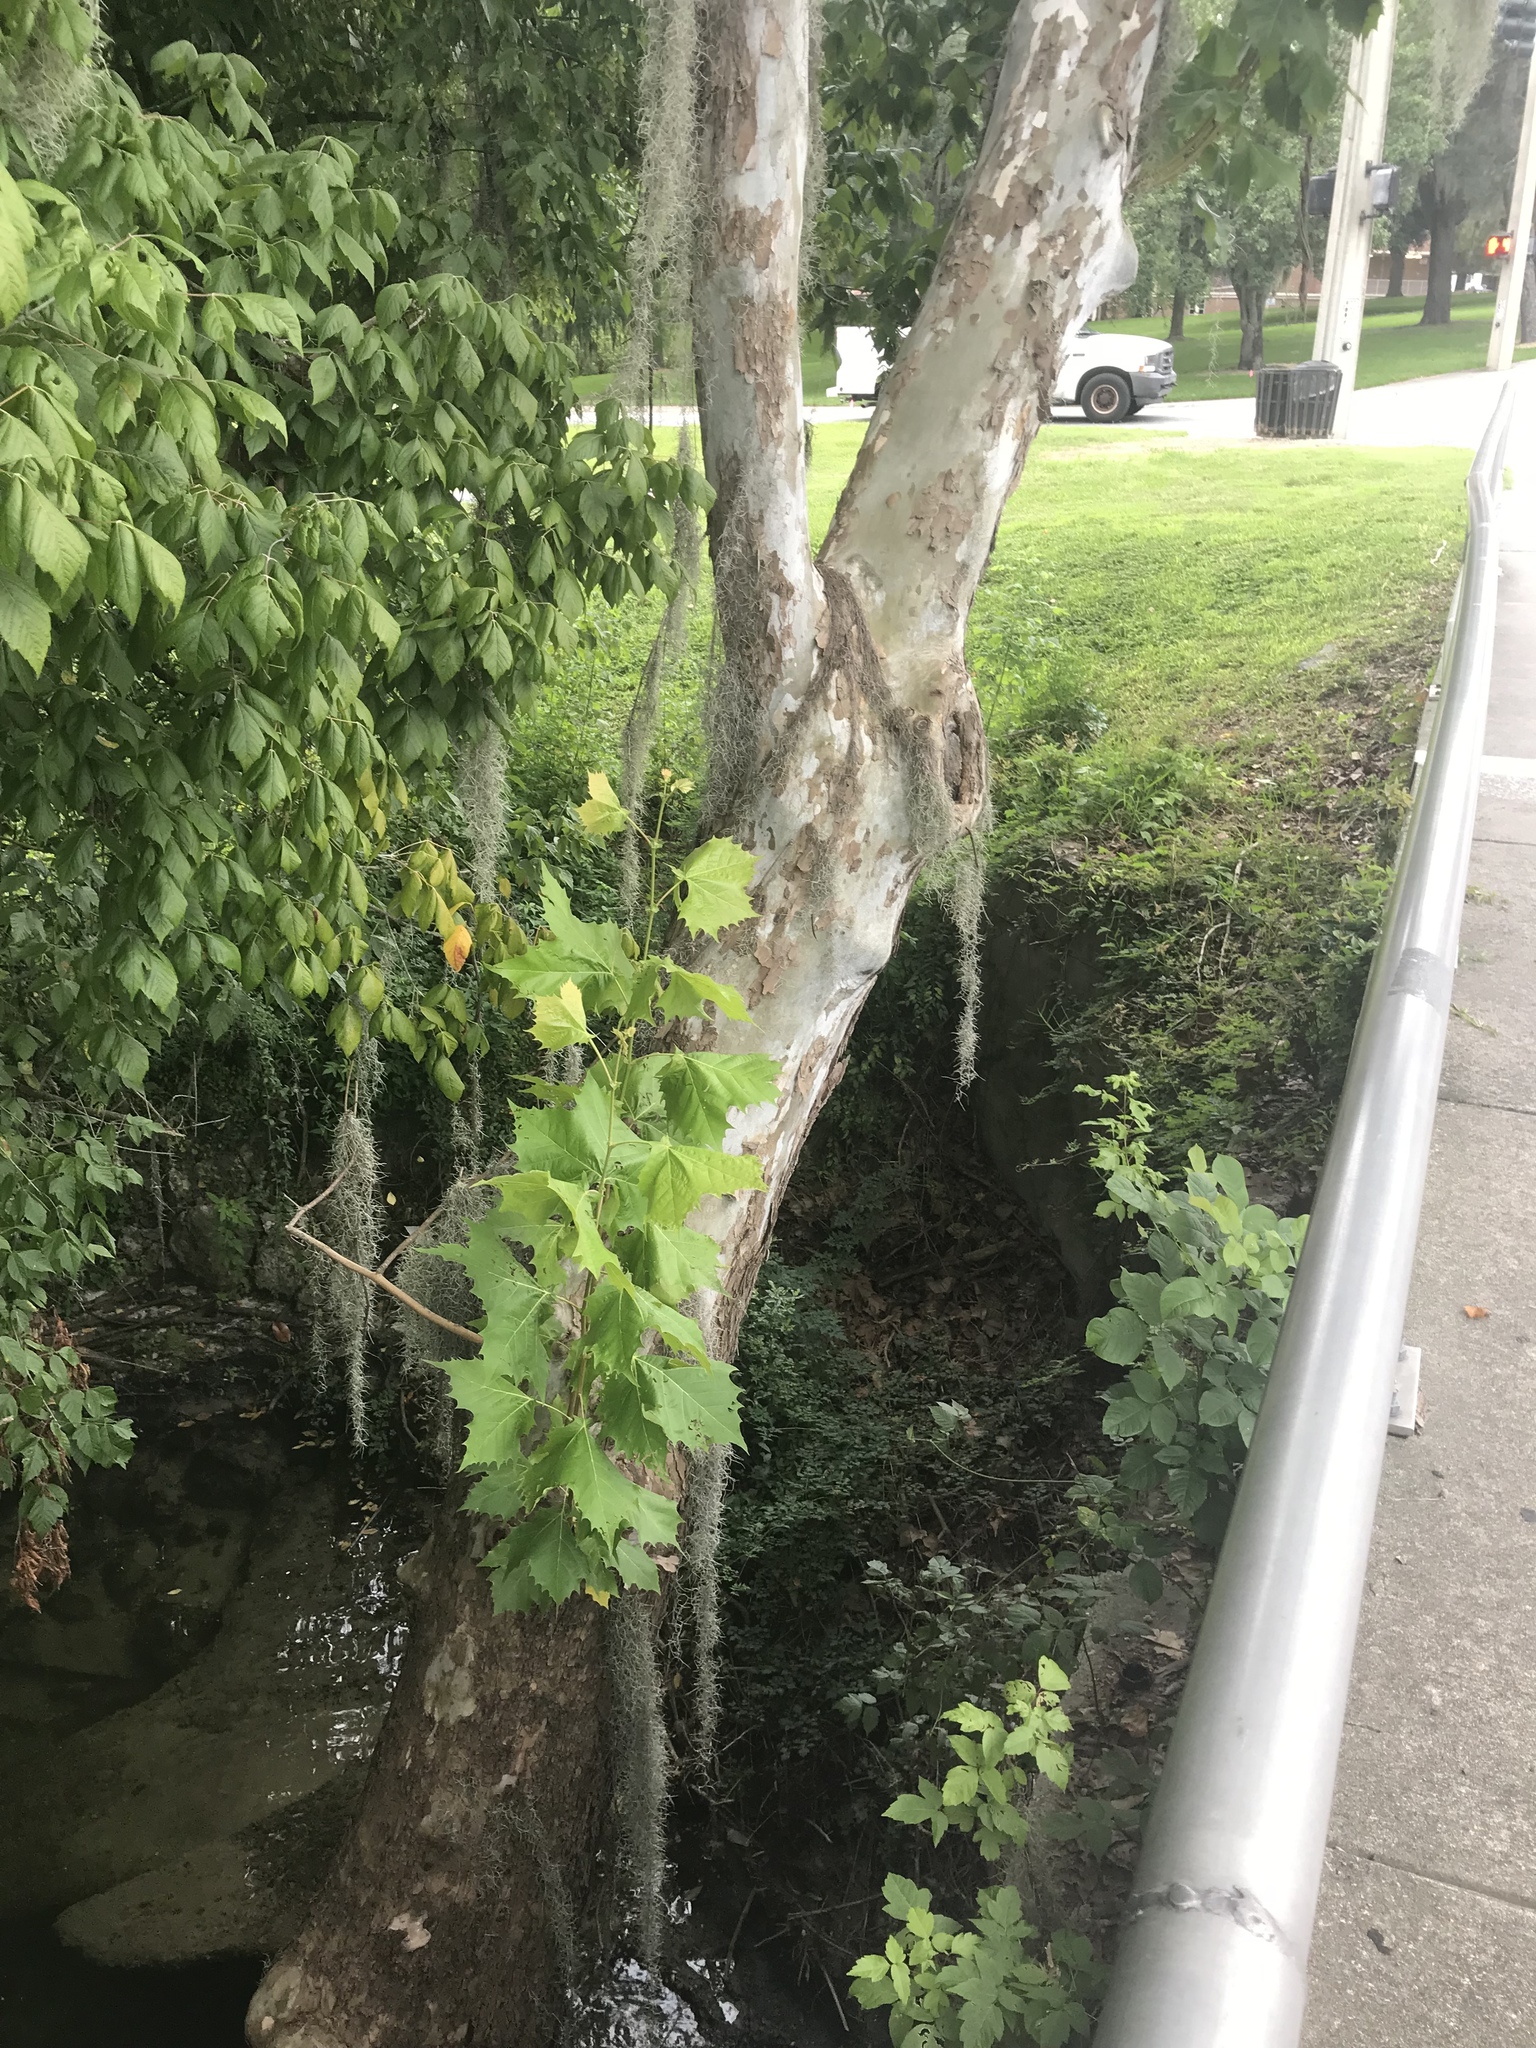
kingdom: Plantae
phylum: Tracheophyta
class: Magnoliopsida
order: Proteales
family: Platanaceae
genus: Platanus
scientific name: Platanus occidentalis
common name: American sycamore
